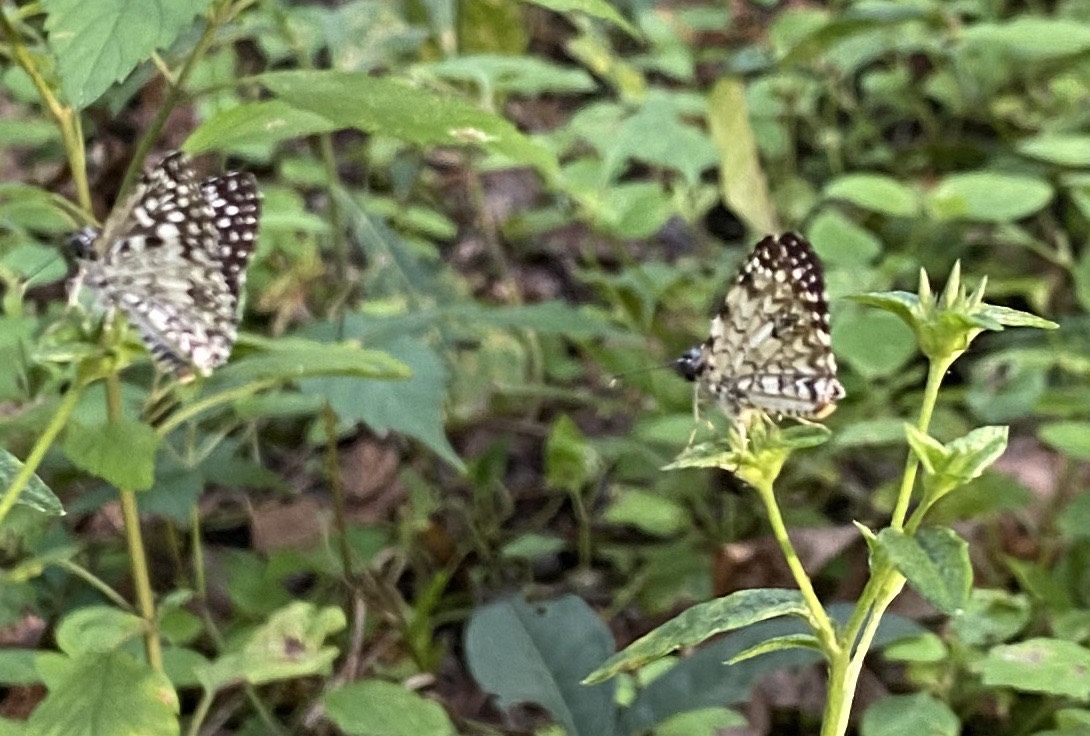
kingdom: Animalia
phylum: Arthropoda
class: Insecta
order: Lepidoptera
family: Hesperiidae
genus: Pyrgus
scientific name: Pyrgus oileus
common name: Tropical checkered-skipper
